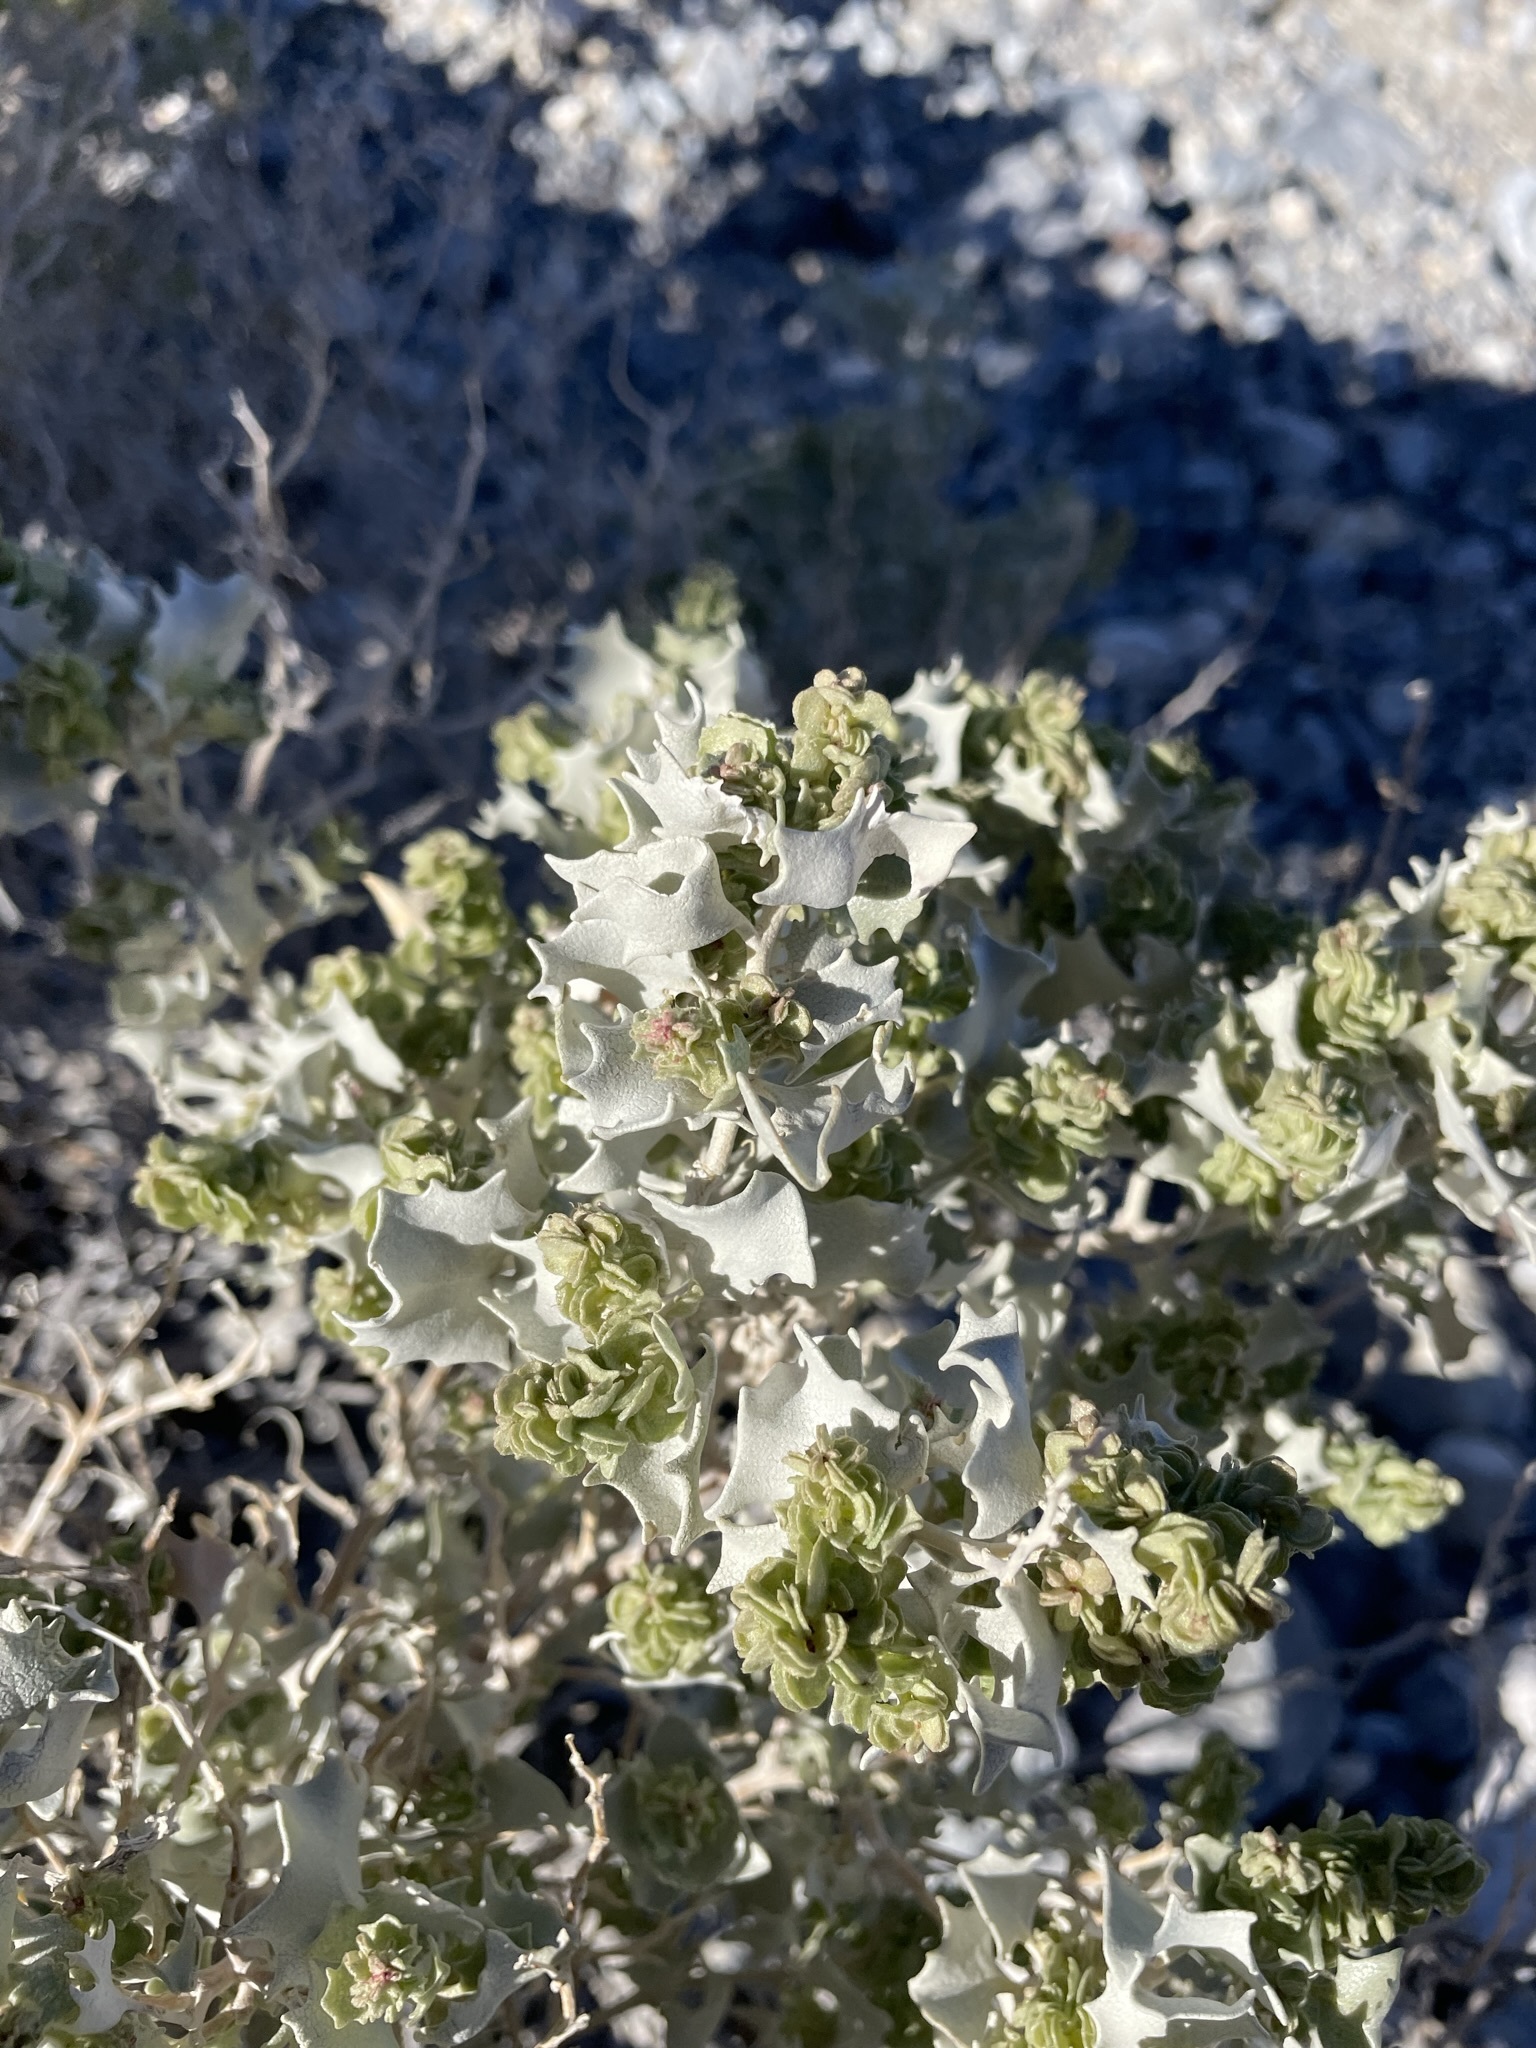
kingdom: Plantae
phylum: Tracheophyta
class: Magnoliopsida
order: Caryophyllales
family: Amaranthaceae
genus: Atriplex
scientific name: Atriplex hymenelytra
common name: Desert-holly
